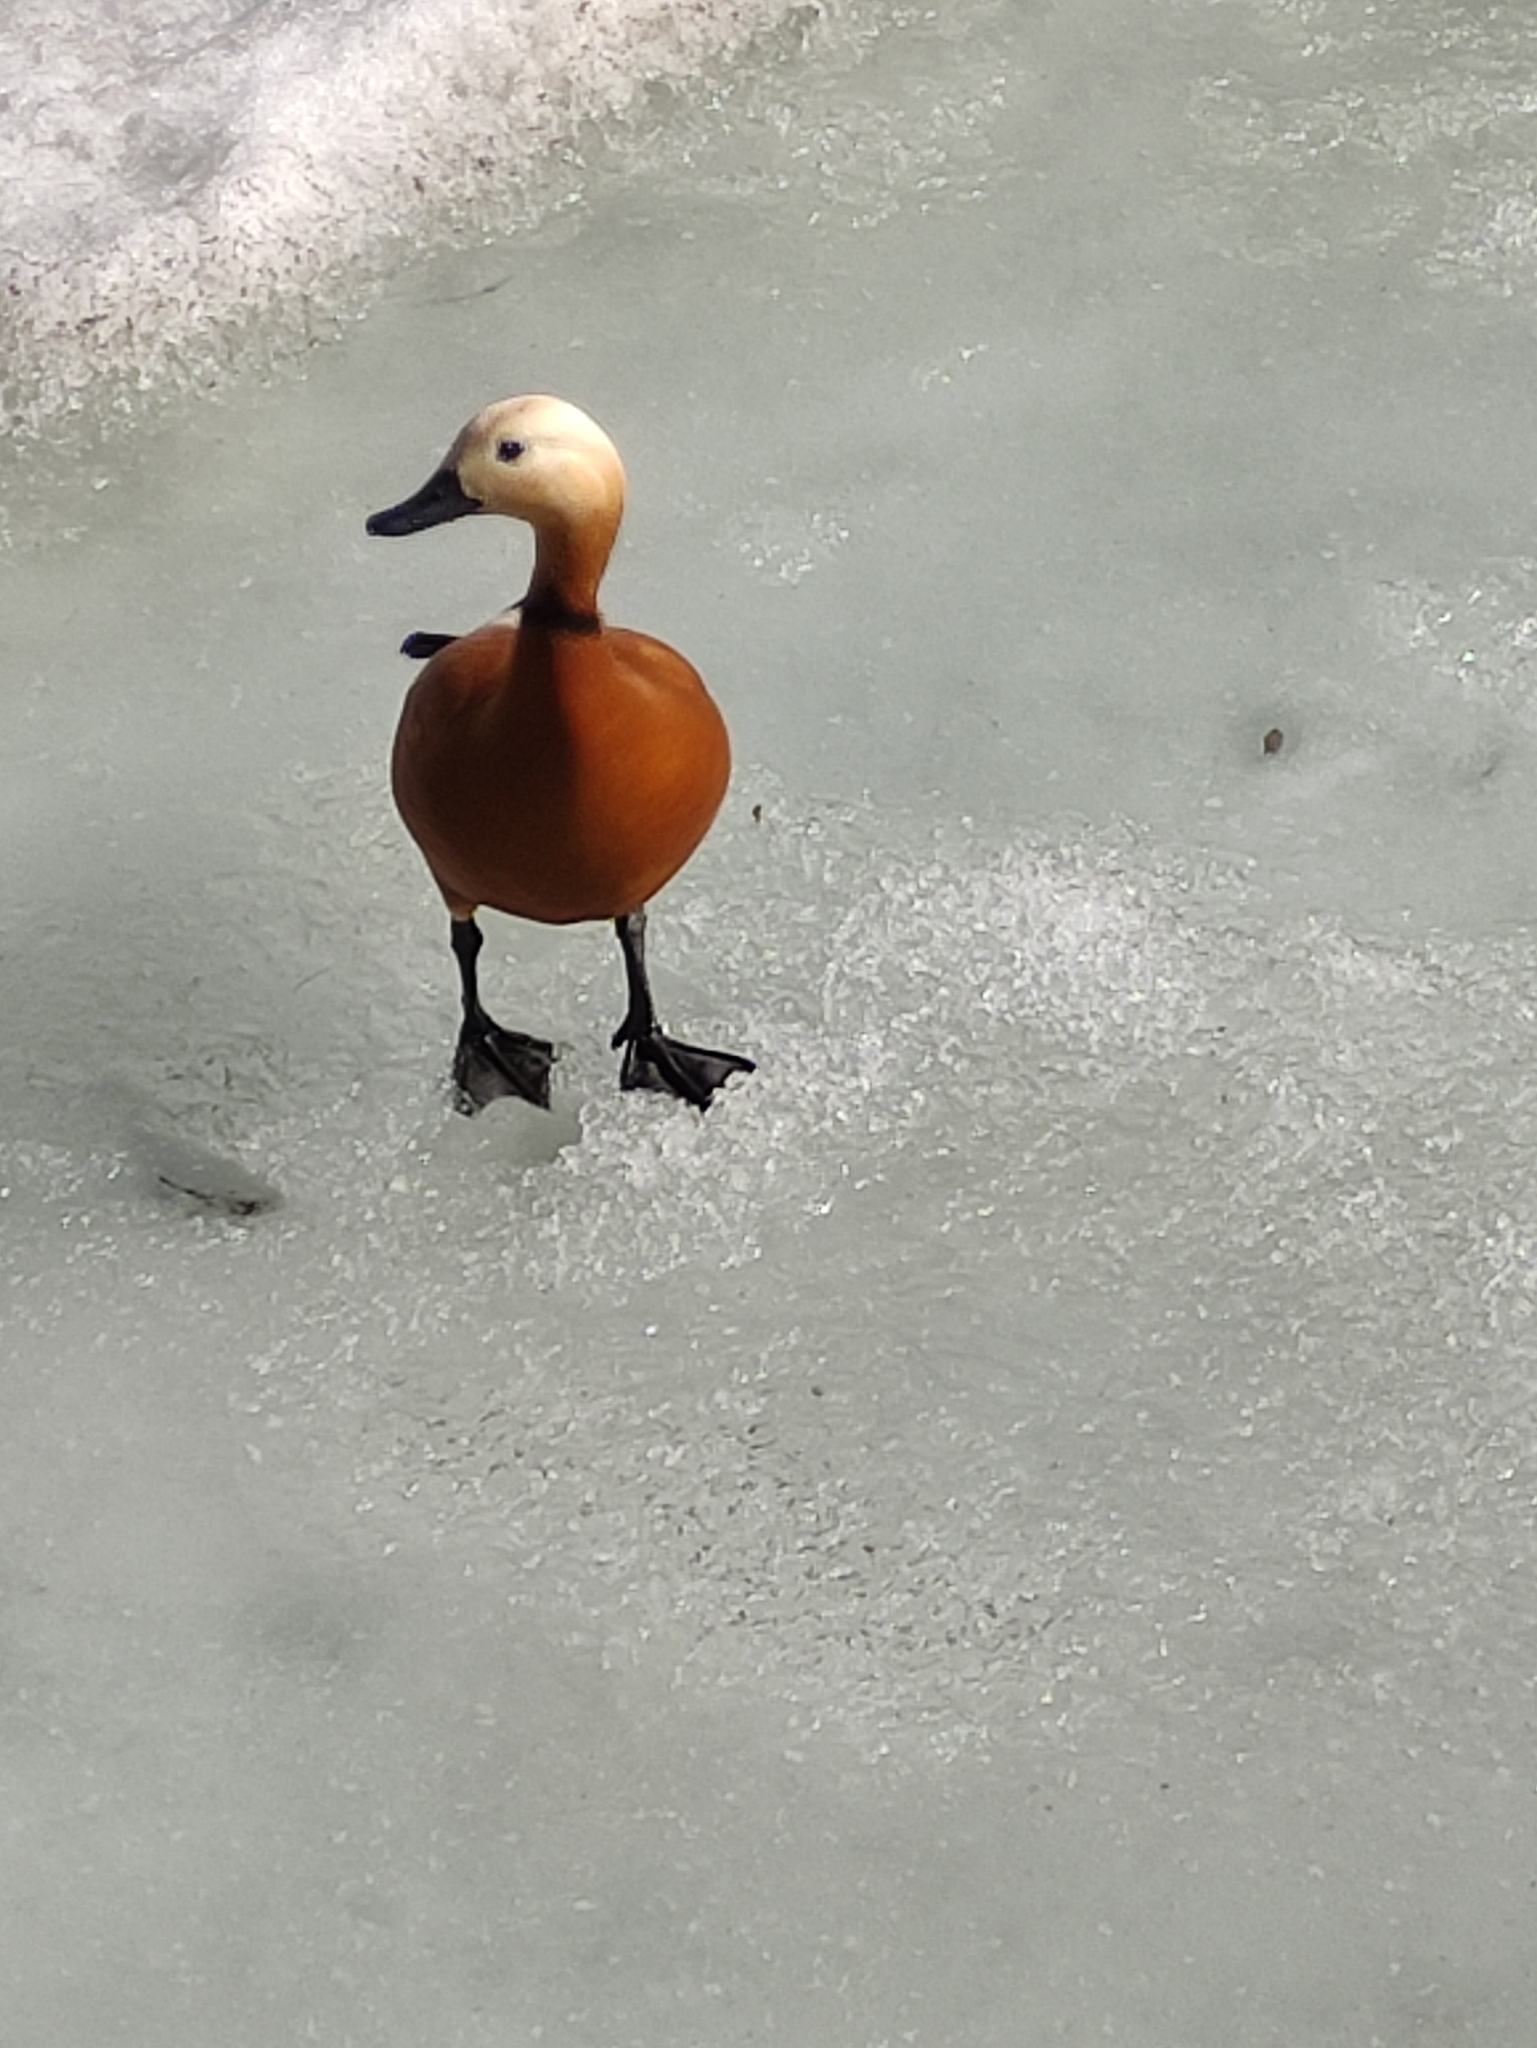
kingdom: Animalia
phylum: Chordata
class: Aves
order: Anseriformes
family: Anatidae
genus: Tadorna
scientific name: Tadorna ferruginea
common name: Ruddy shelduck
